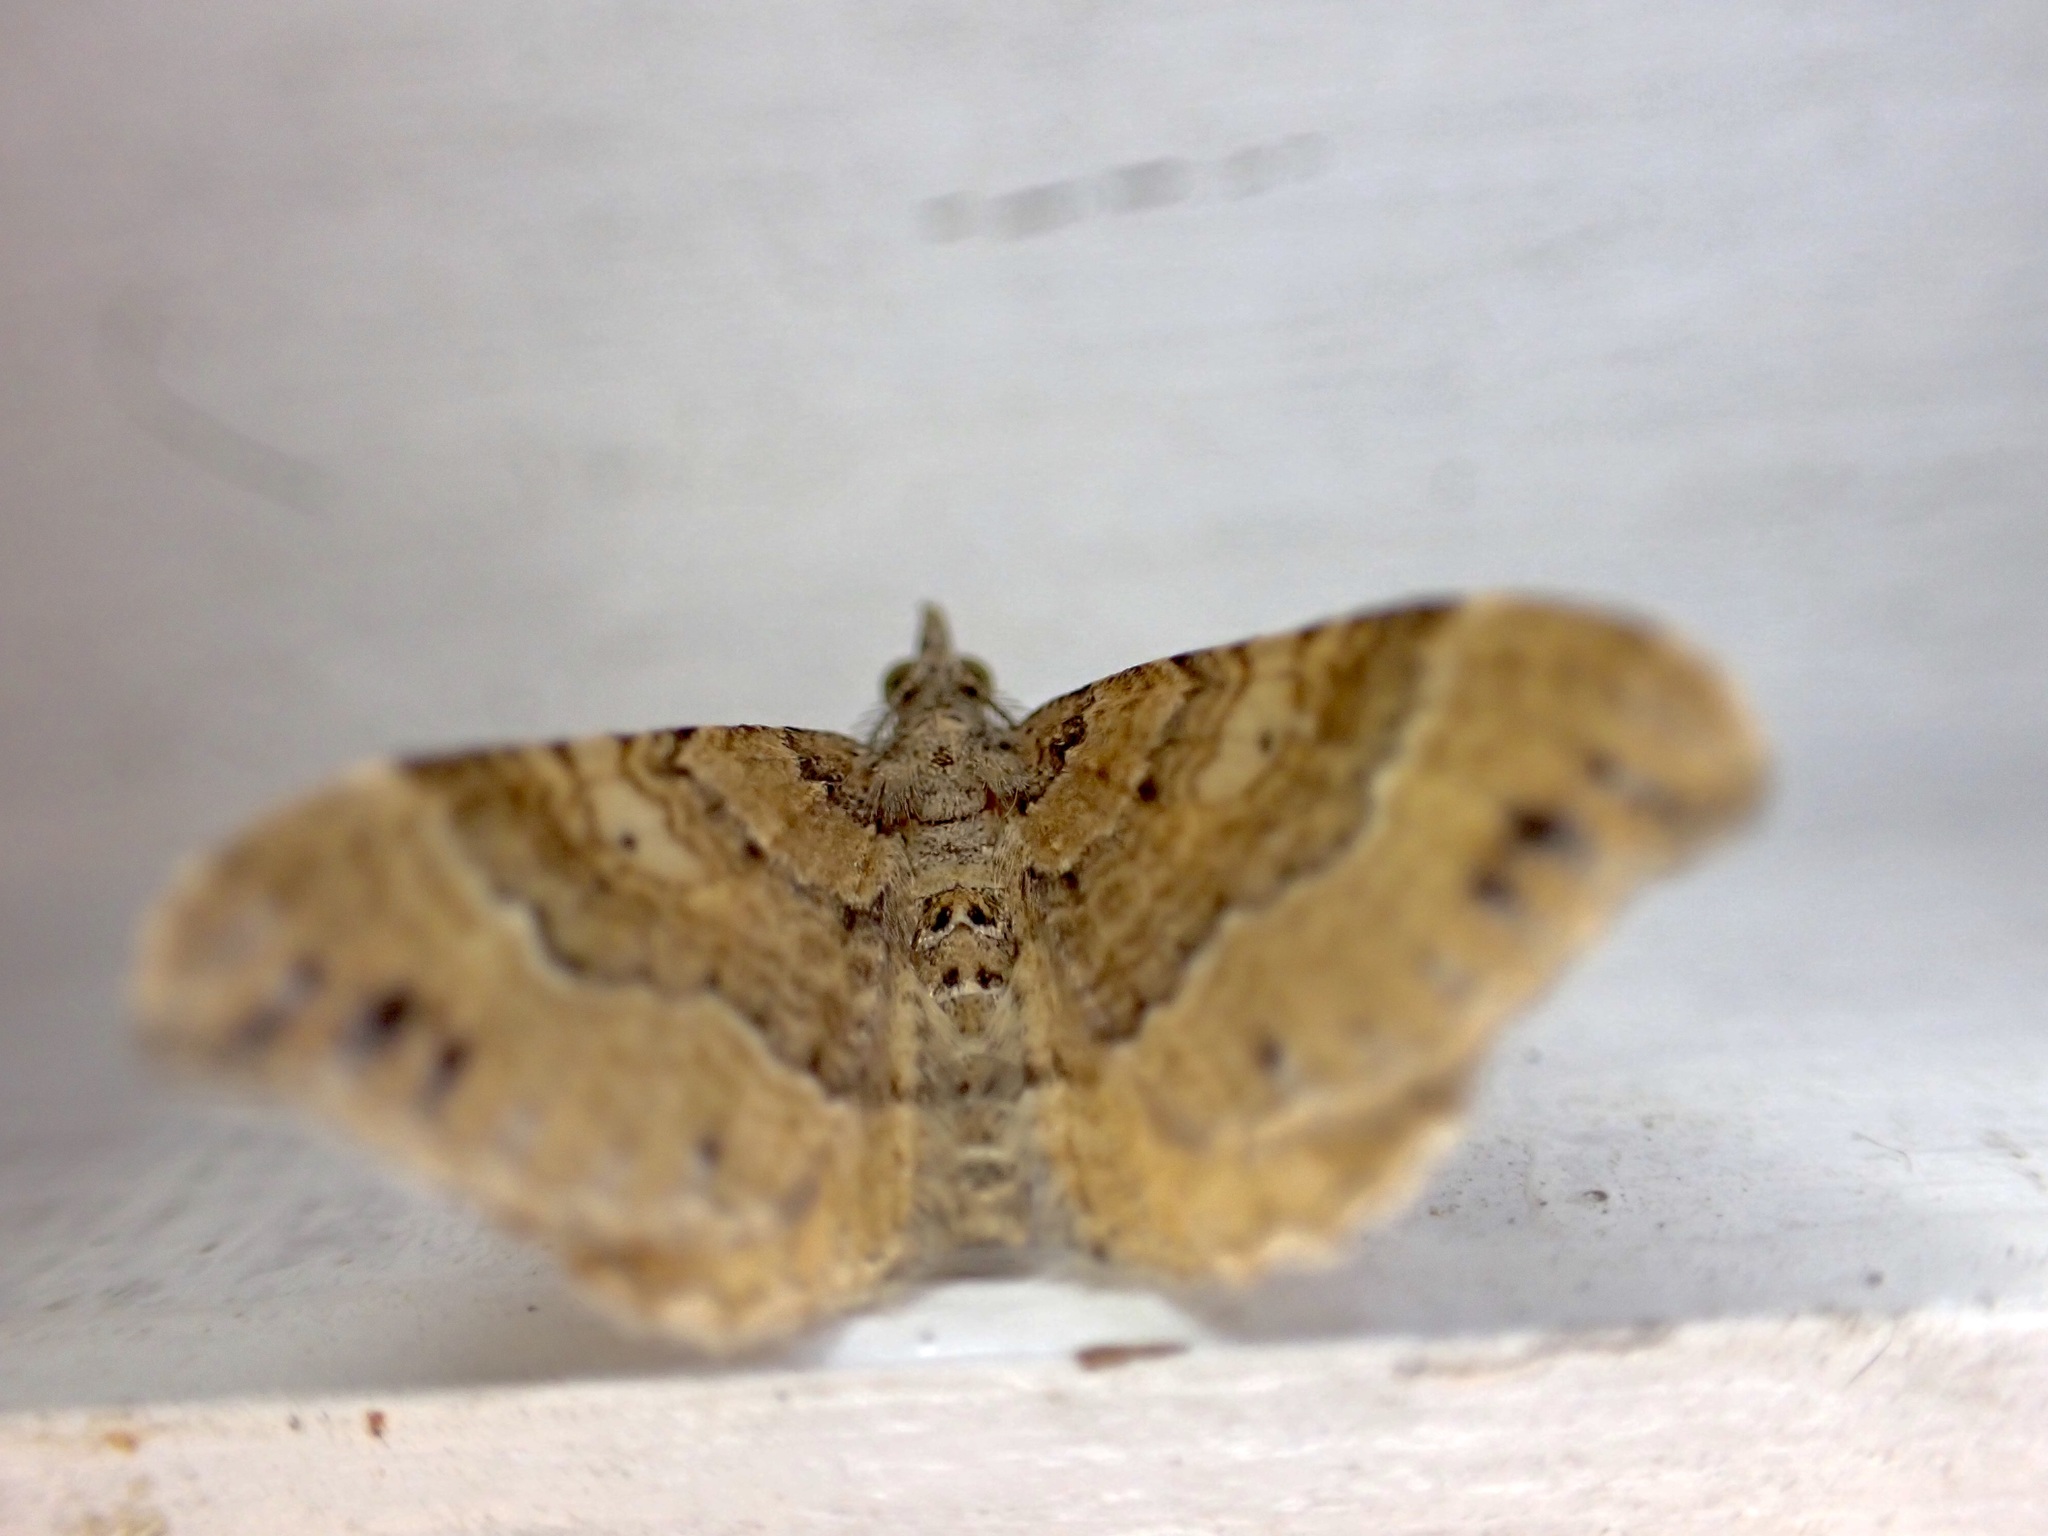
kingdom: Animalia
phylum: Arthropoda
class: Insecta
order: Lepidoptera
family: Geometridae
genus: Homodotis
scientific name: Homodotis megaspilata
